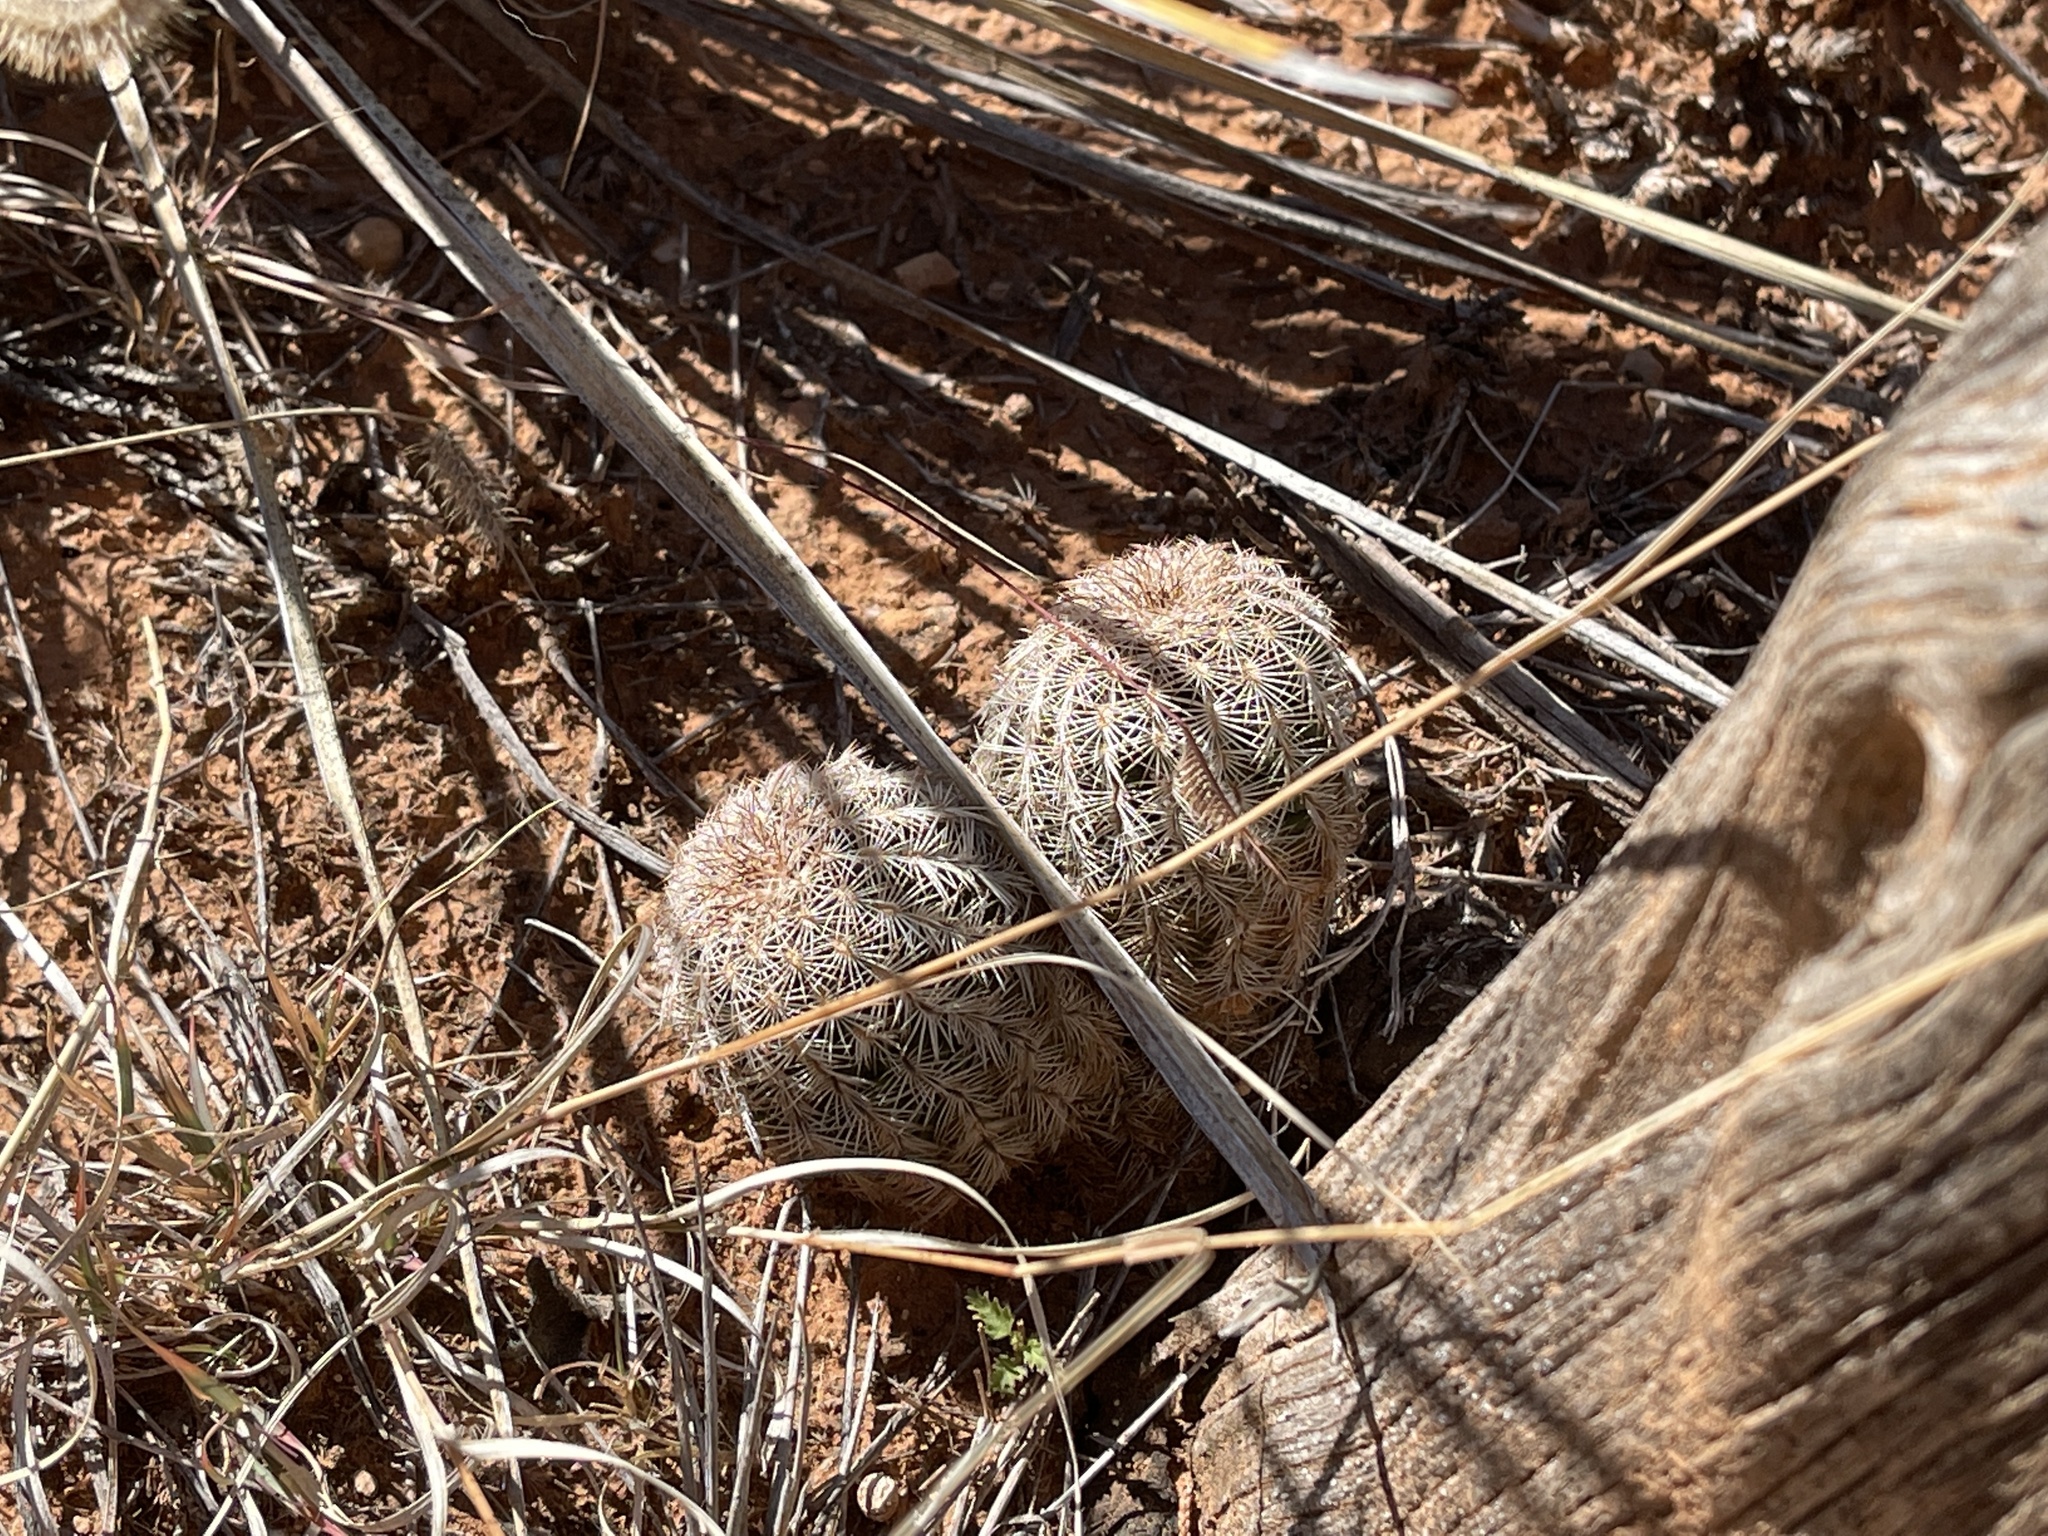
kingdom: Plantae
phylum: Tracheophyta
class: Magnoliopsida
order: Caryophyllales
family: Cactaceae
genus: Echinocereus
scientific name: Echinocereus reichenbachii
